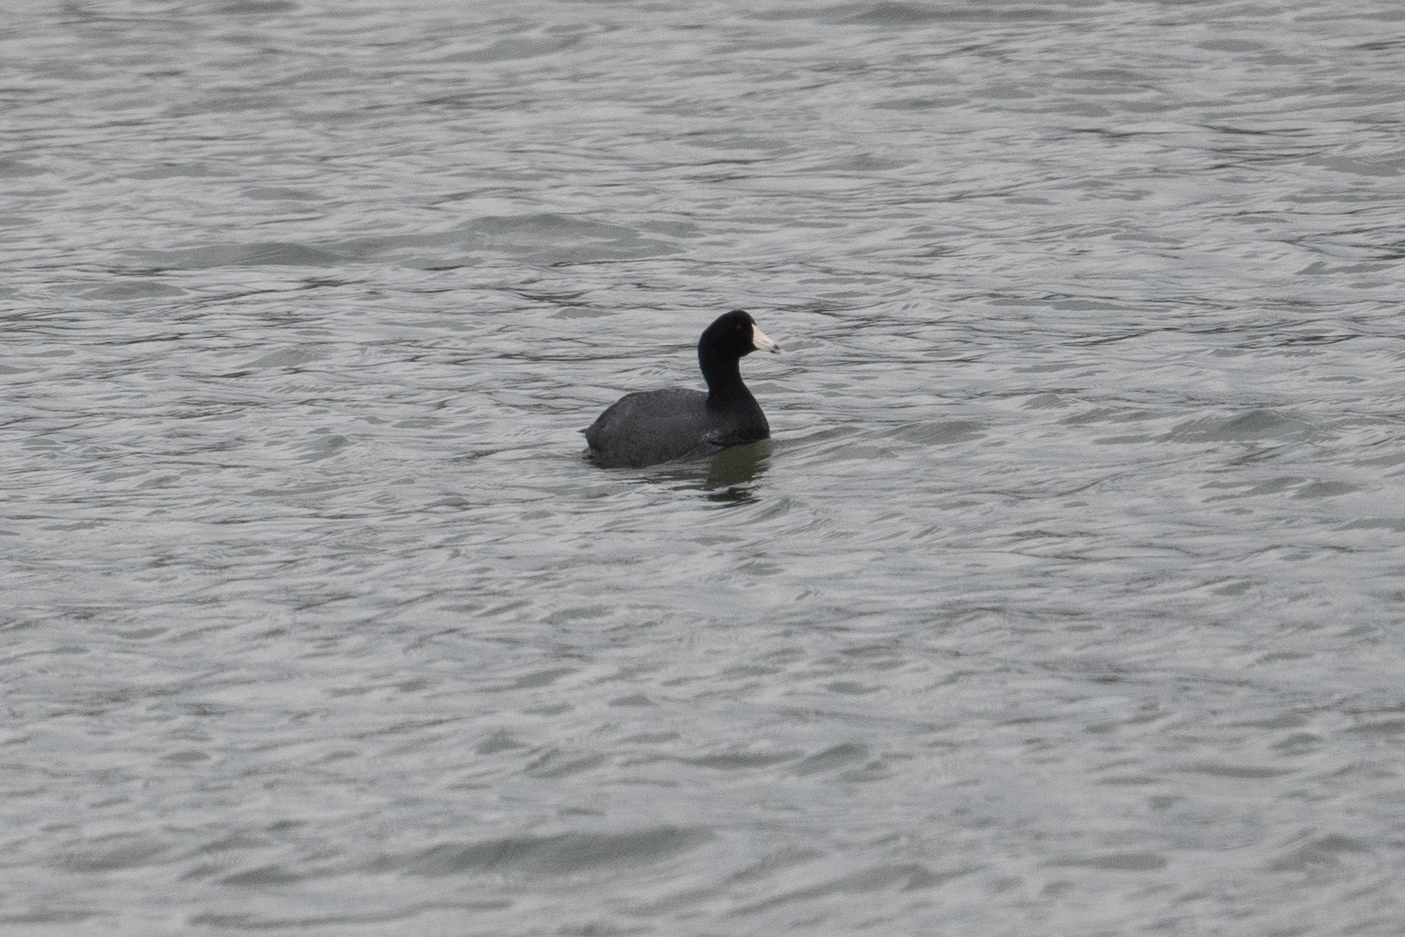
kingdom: Animalia
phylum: Chordata
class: Aves
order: Gruiformes
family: Rallidae
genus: Fulica
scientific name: Fulica americana
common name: American coot
